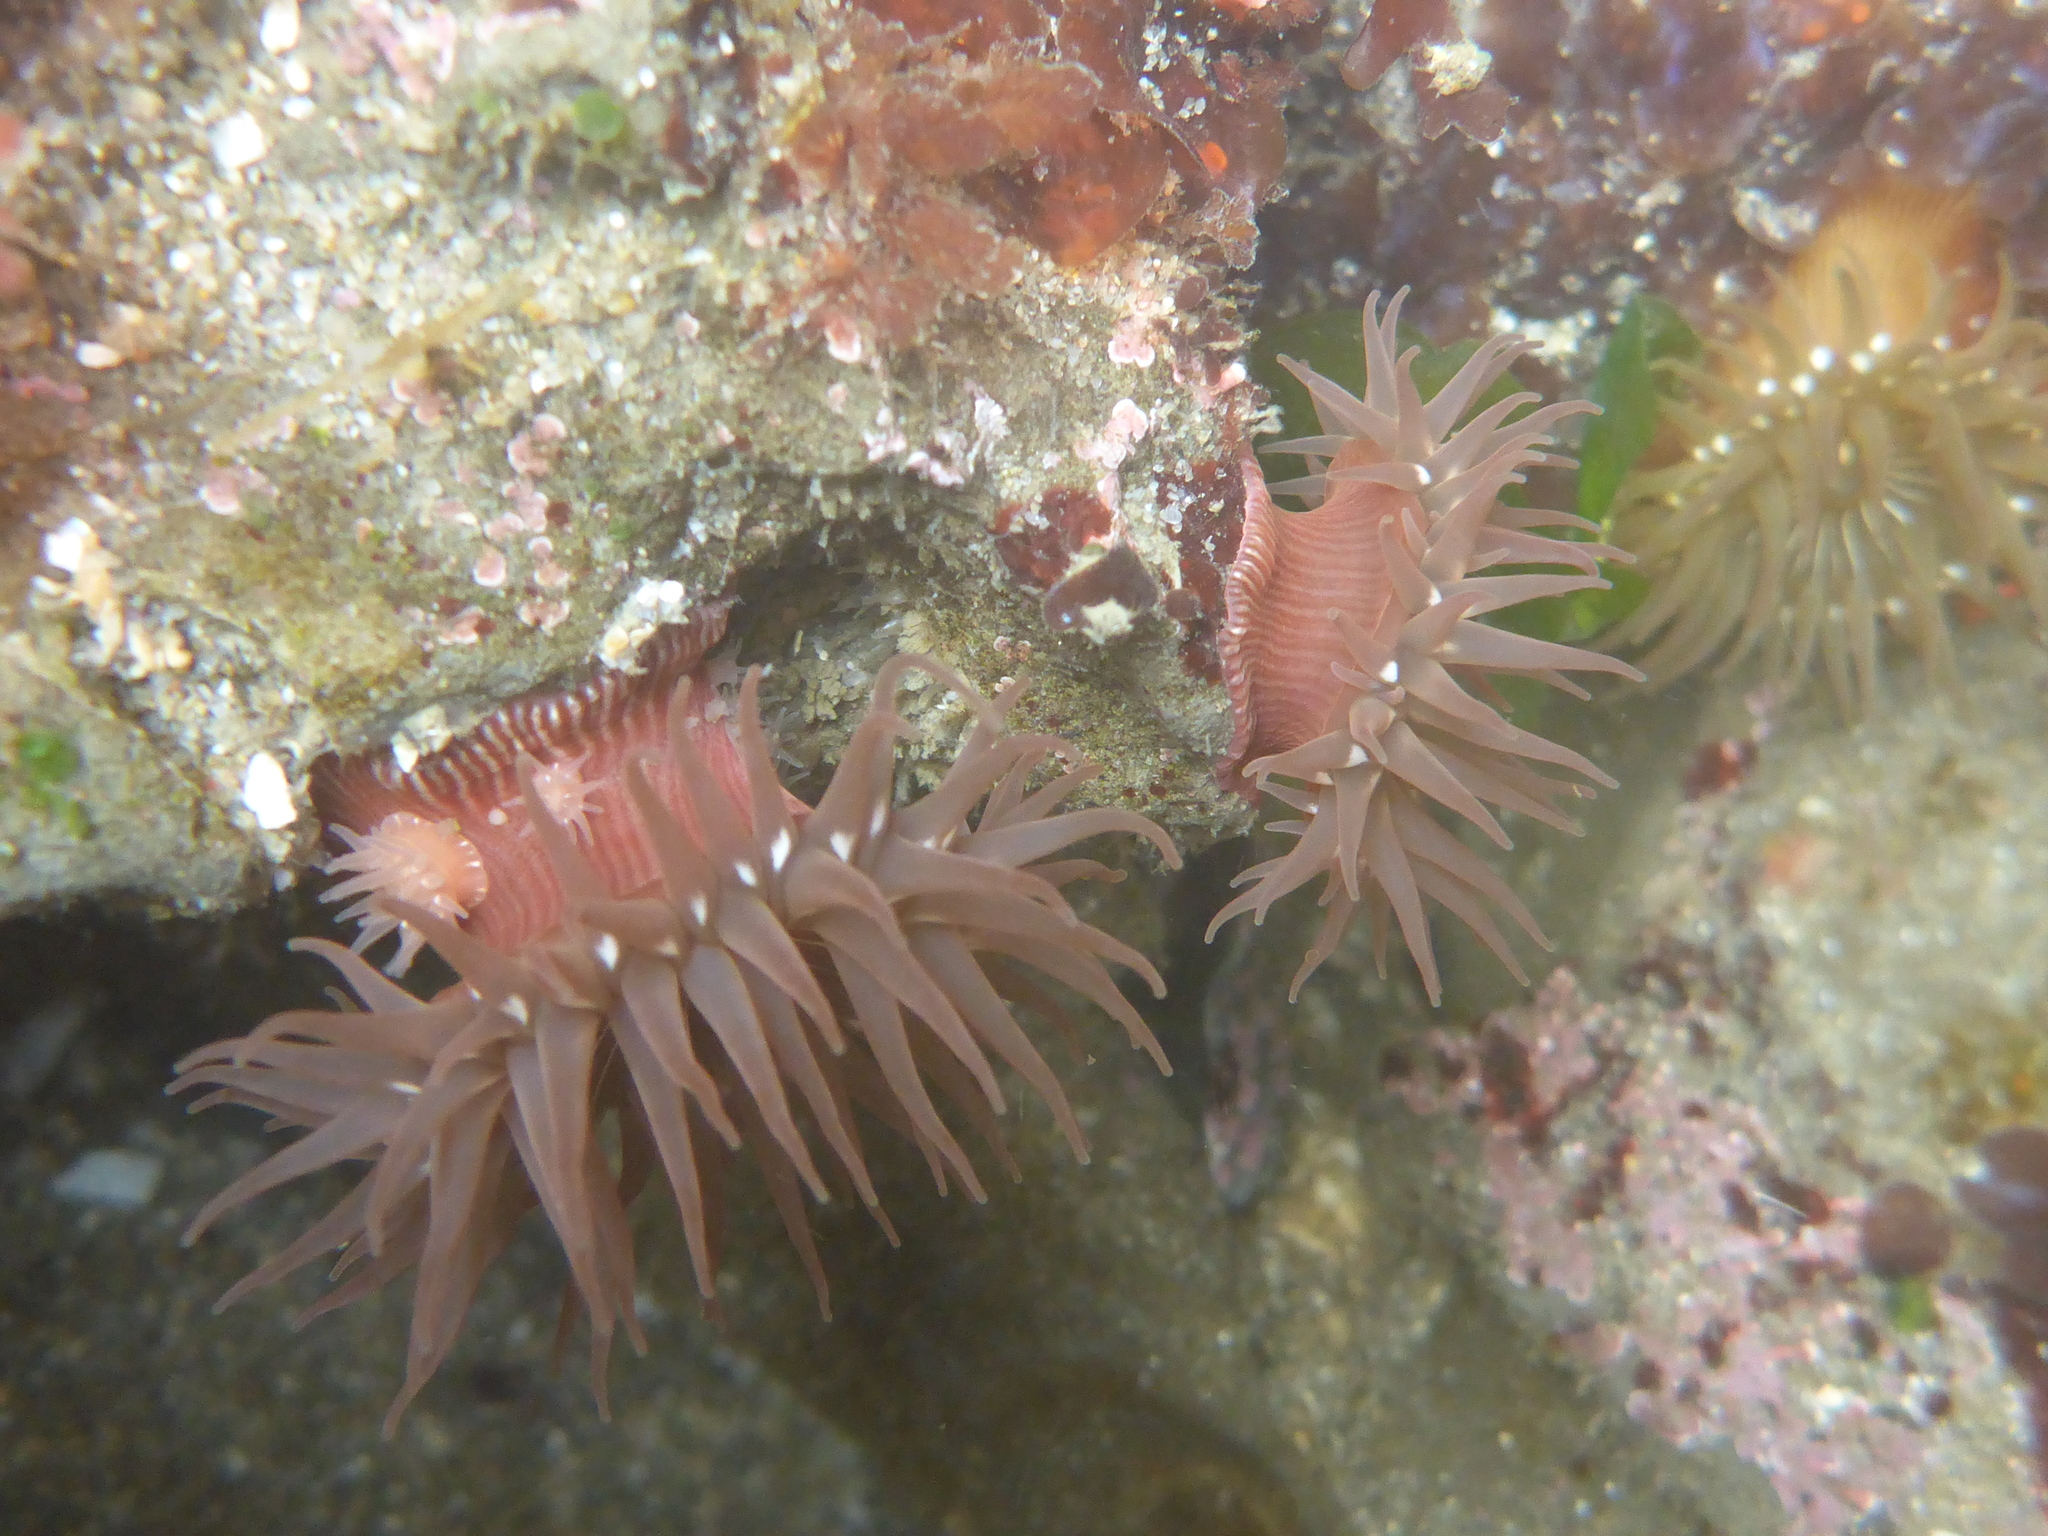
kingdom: Animalia
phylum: Cnidaria
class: Anthozoa
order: Actiniaria
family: Actiniidae
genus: Epiactis
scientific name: Epiactis prolifera
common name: Brooding anemone
